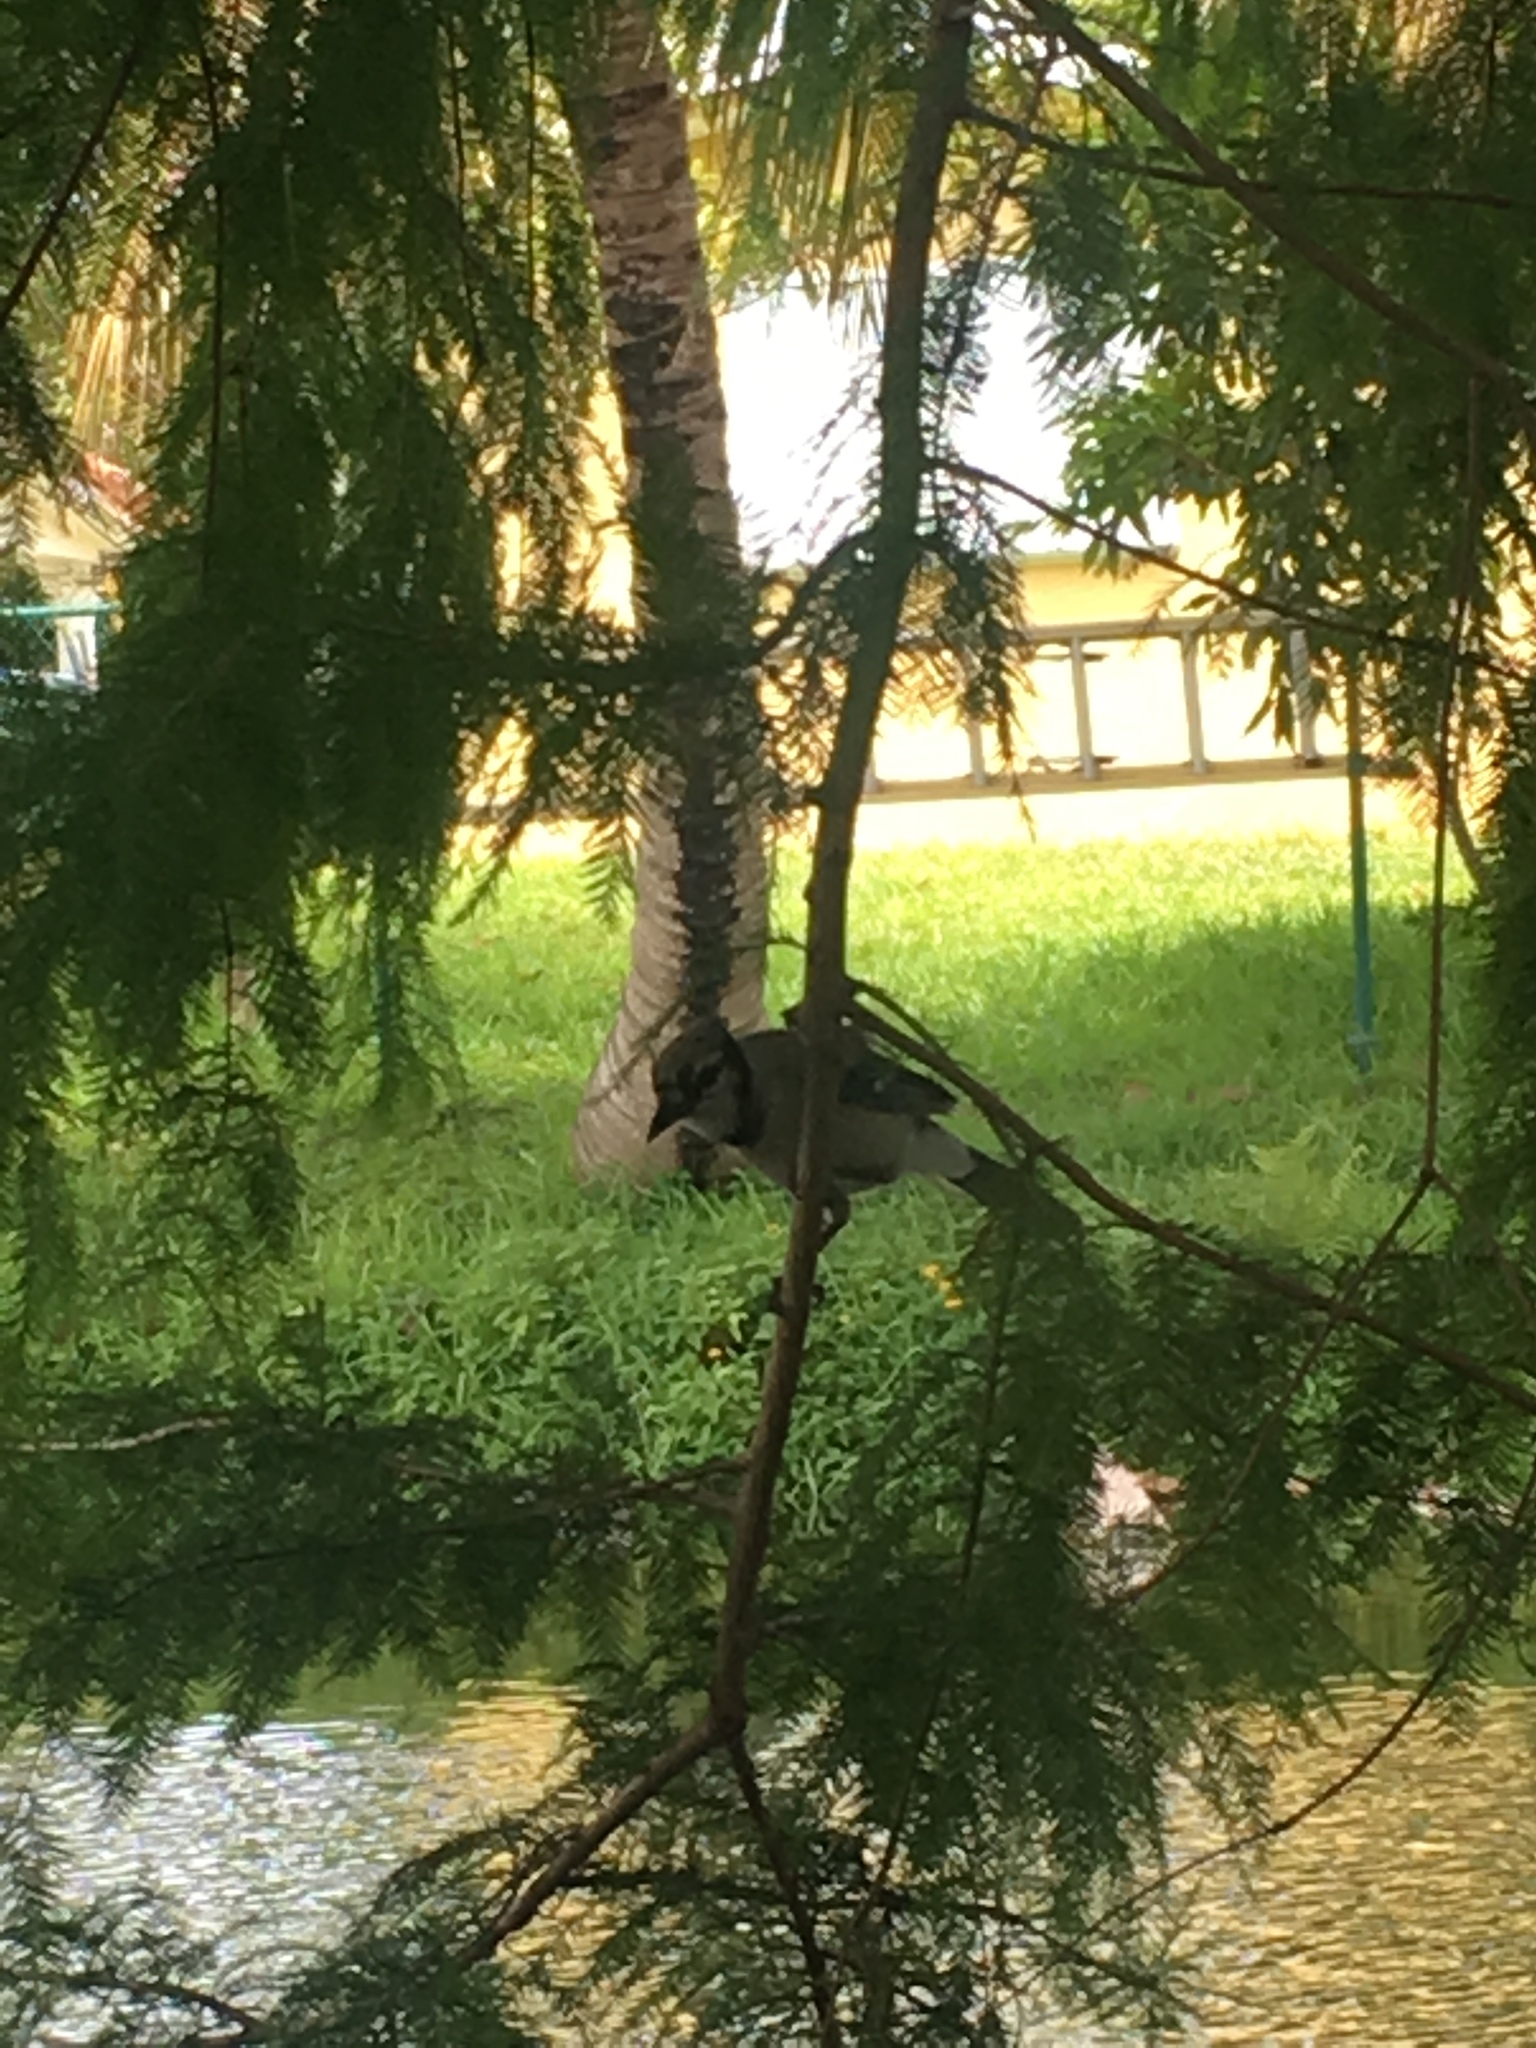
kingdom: Animalia
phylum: Chordata
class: Aves
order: Passeriformes
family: Corvidae
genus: Cyanocitta
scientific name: Cyanocitta cristata
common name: Blue jay
